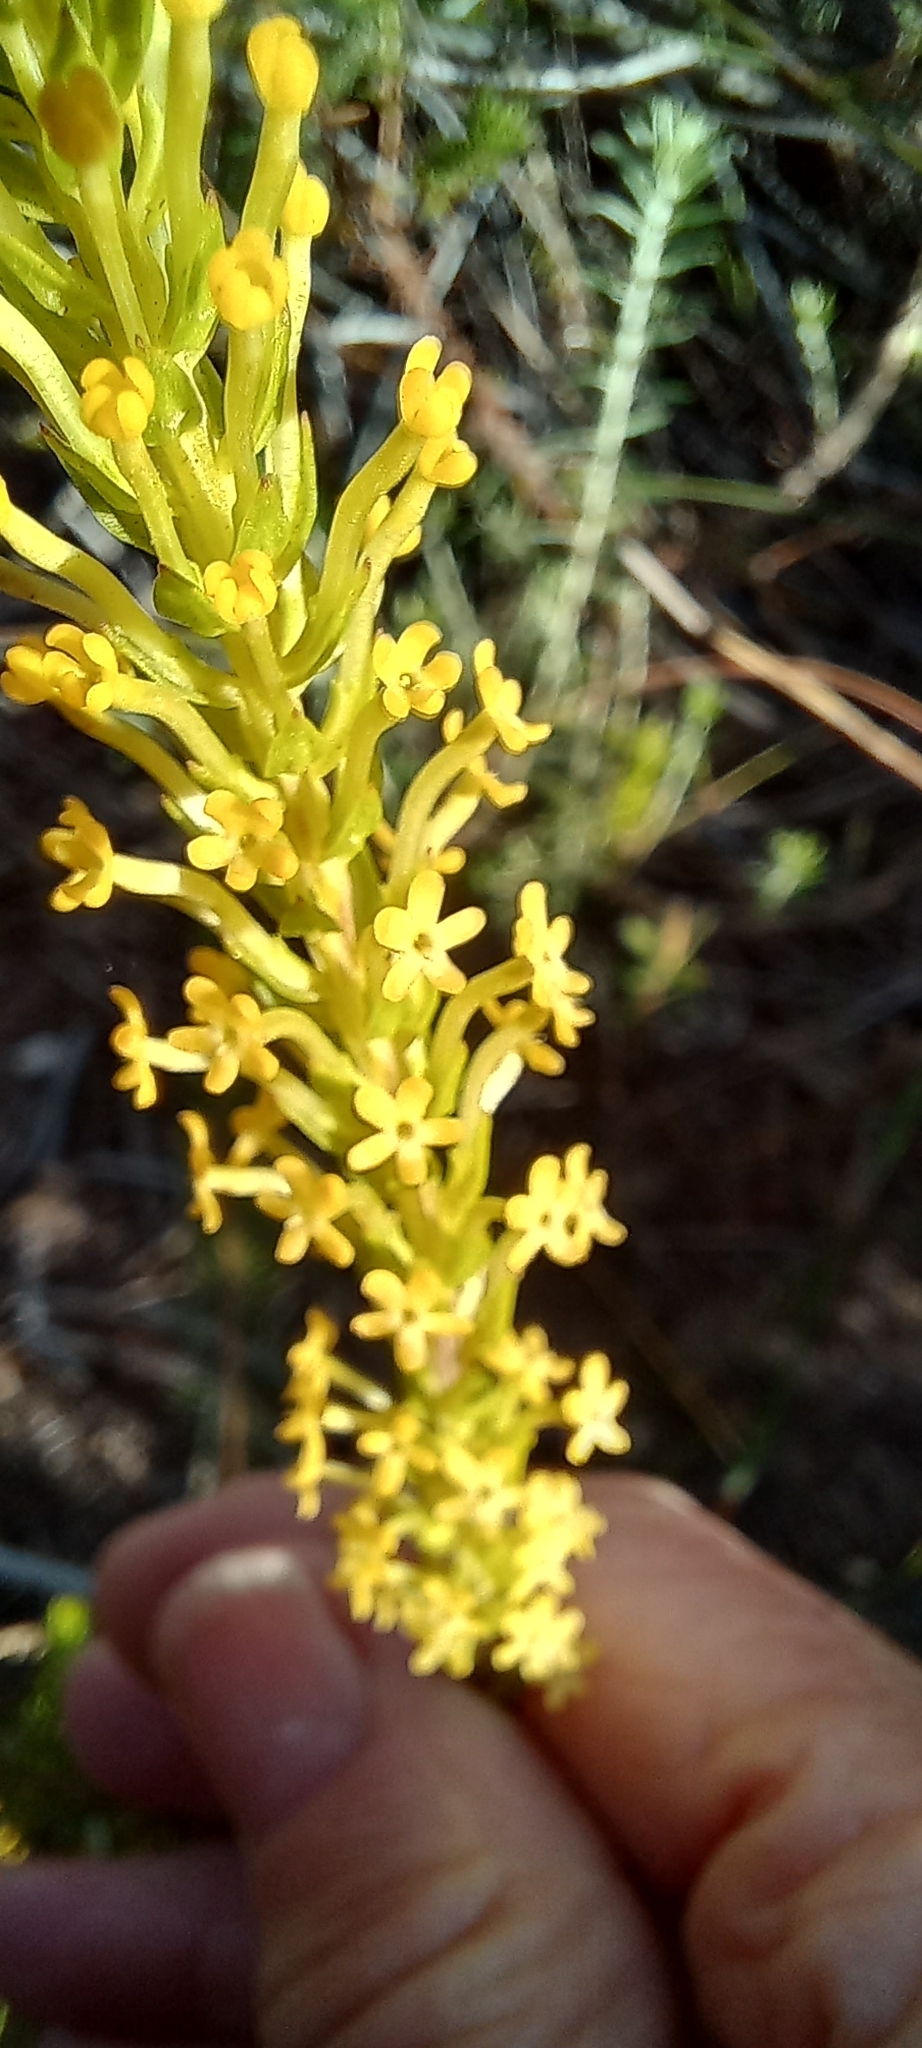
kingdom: Plantae
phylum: Tracheophyta
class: Magnoliopsida
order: Lamiales
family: Scrophulariaceae
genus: Microdon
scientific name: Microdon dubius
